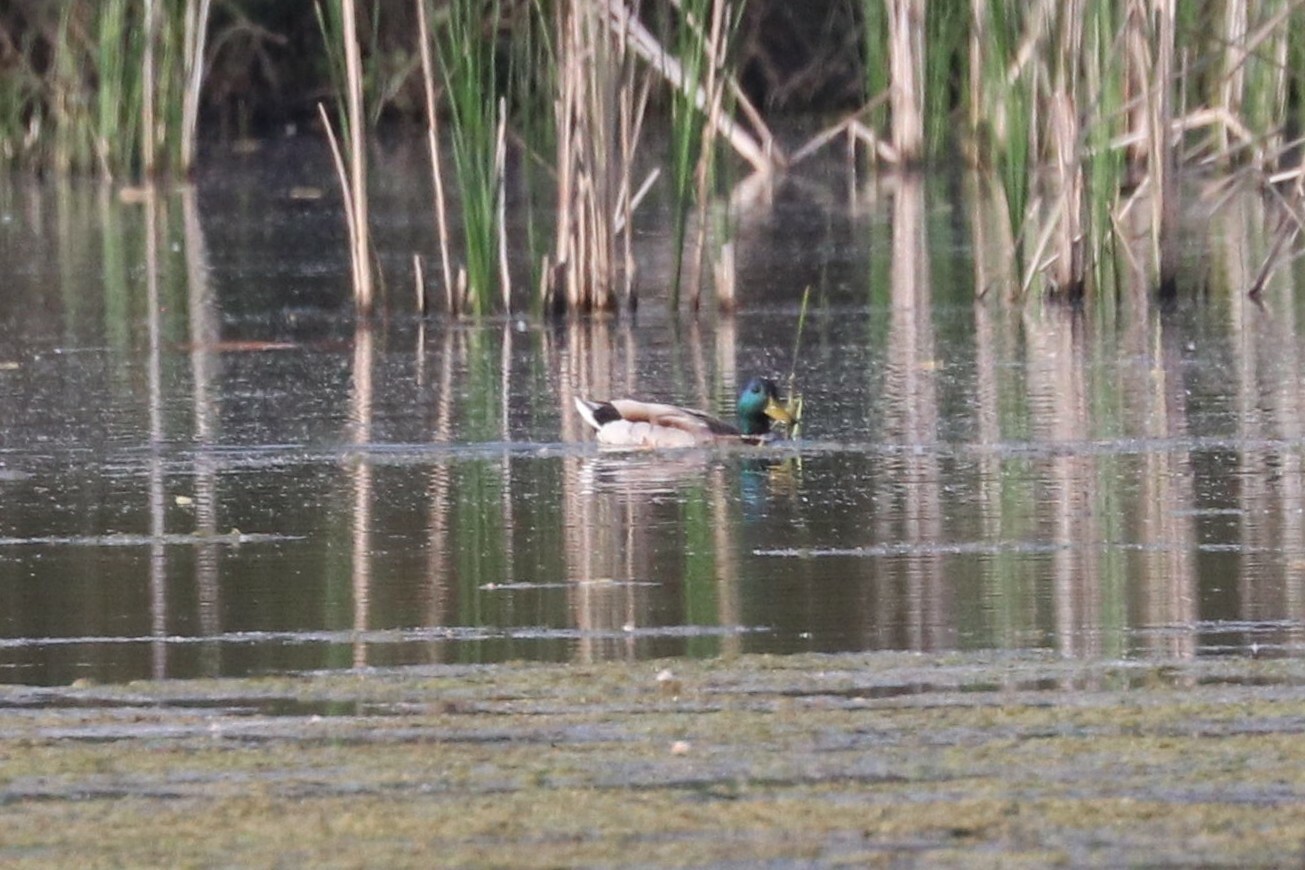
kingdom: Animalia
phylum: Chordata
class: Aves
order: Anseriformes
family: Anatidae
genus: Anas
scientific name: Anas platyrhynchos
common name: Mallard
